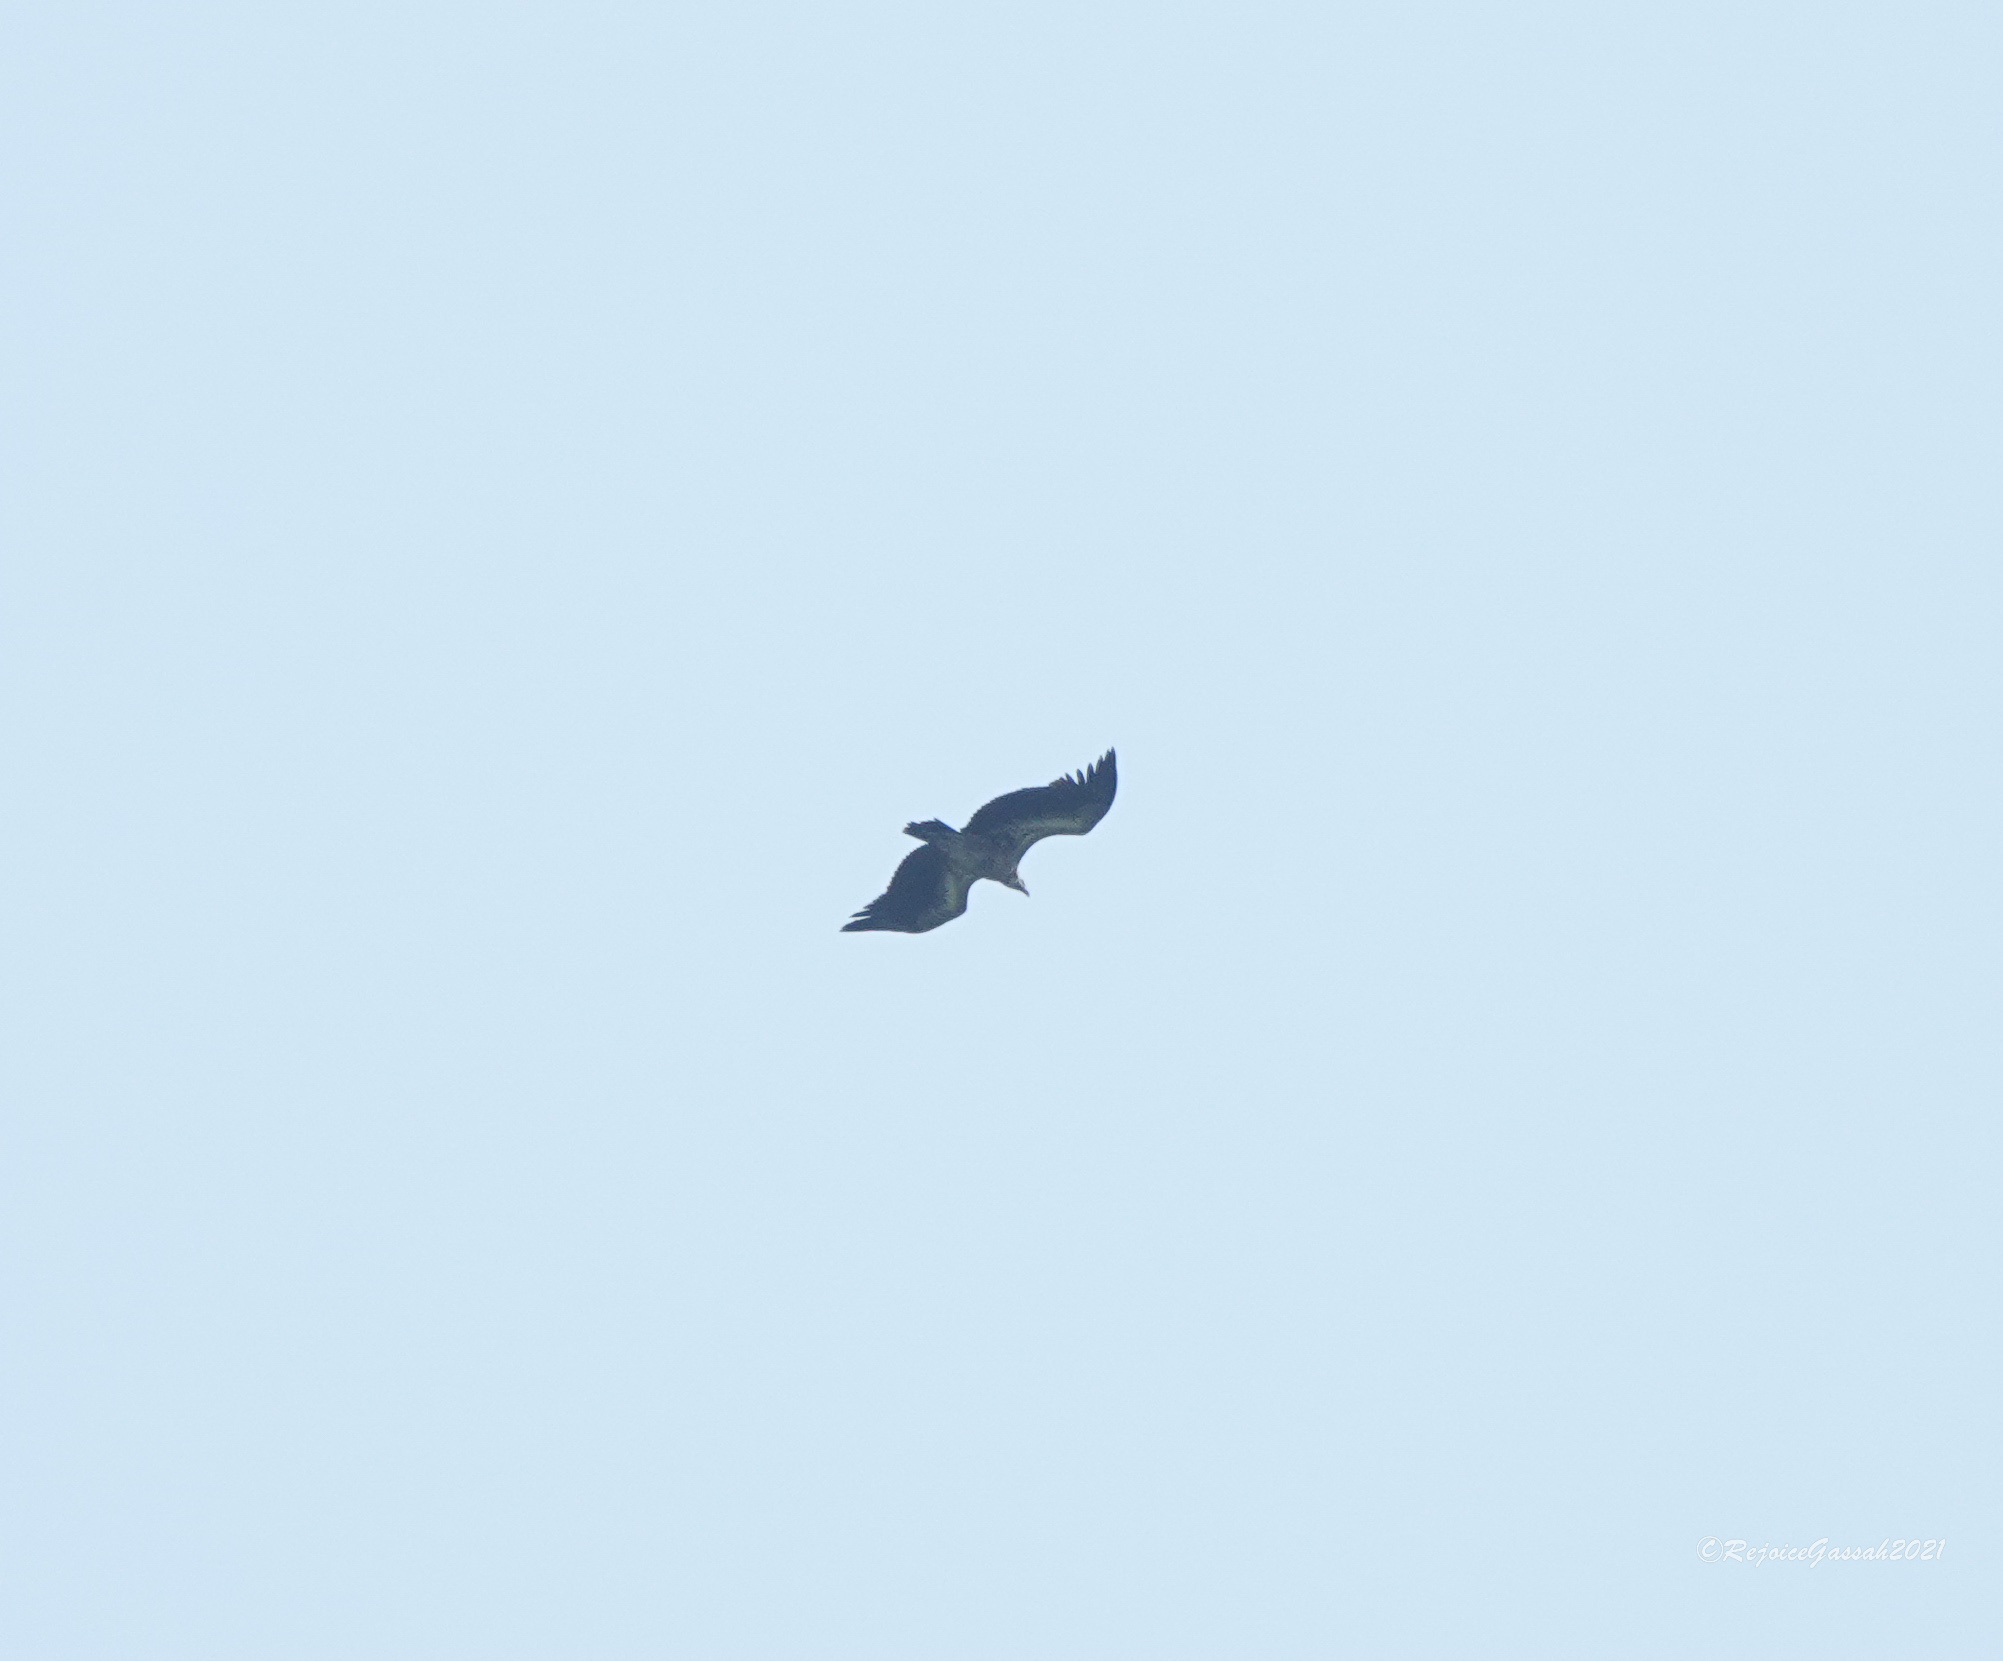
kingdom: Animalia
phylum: Chordata
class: Aves
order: Accipitriformes
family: Accipitridae
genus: Gyps
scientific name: Gyps fulvus
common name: Griffon vulture
